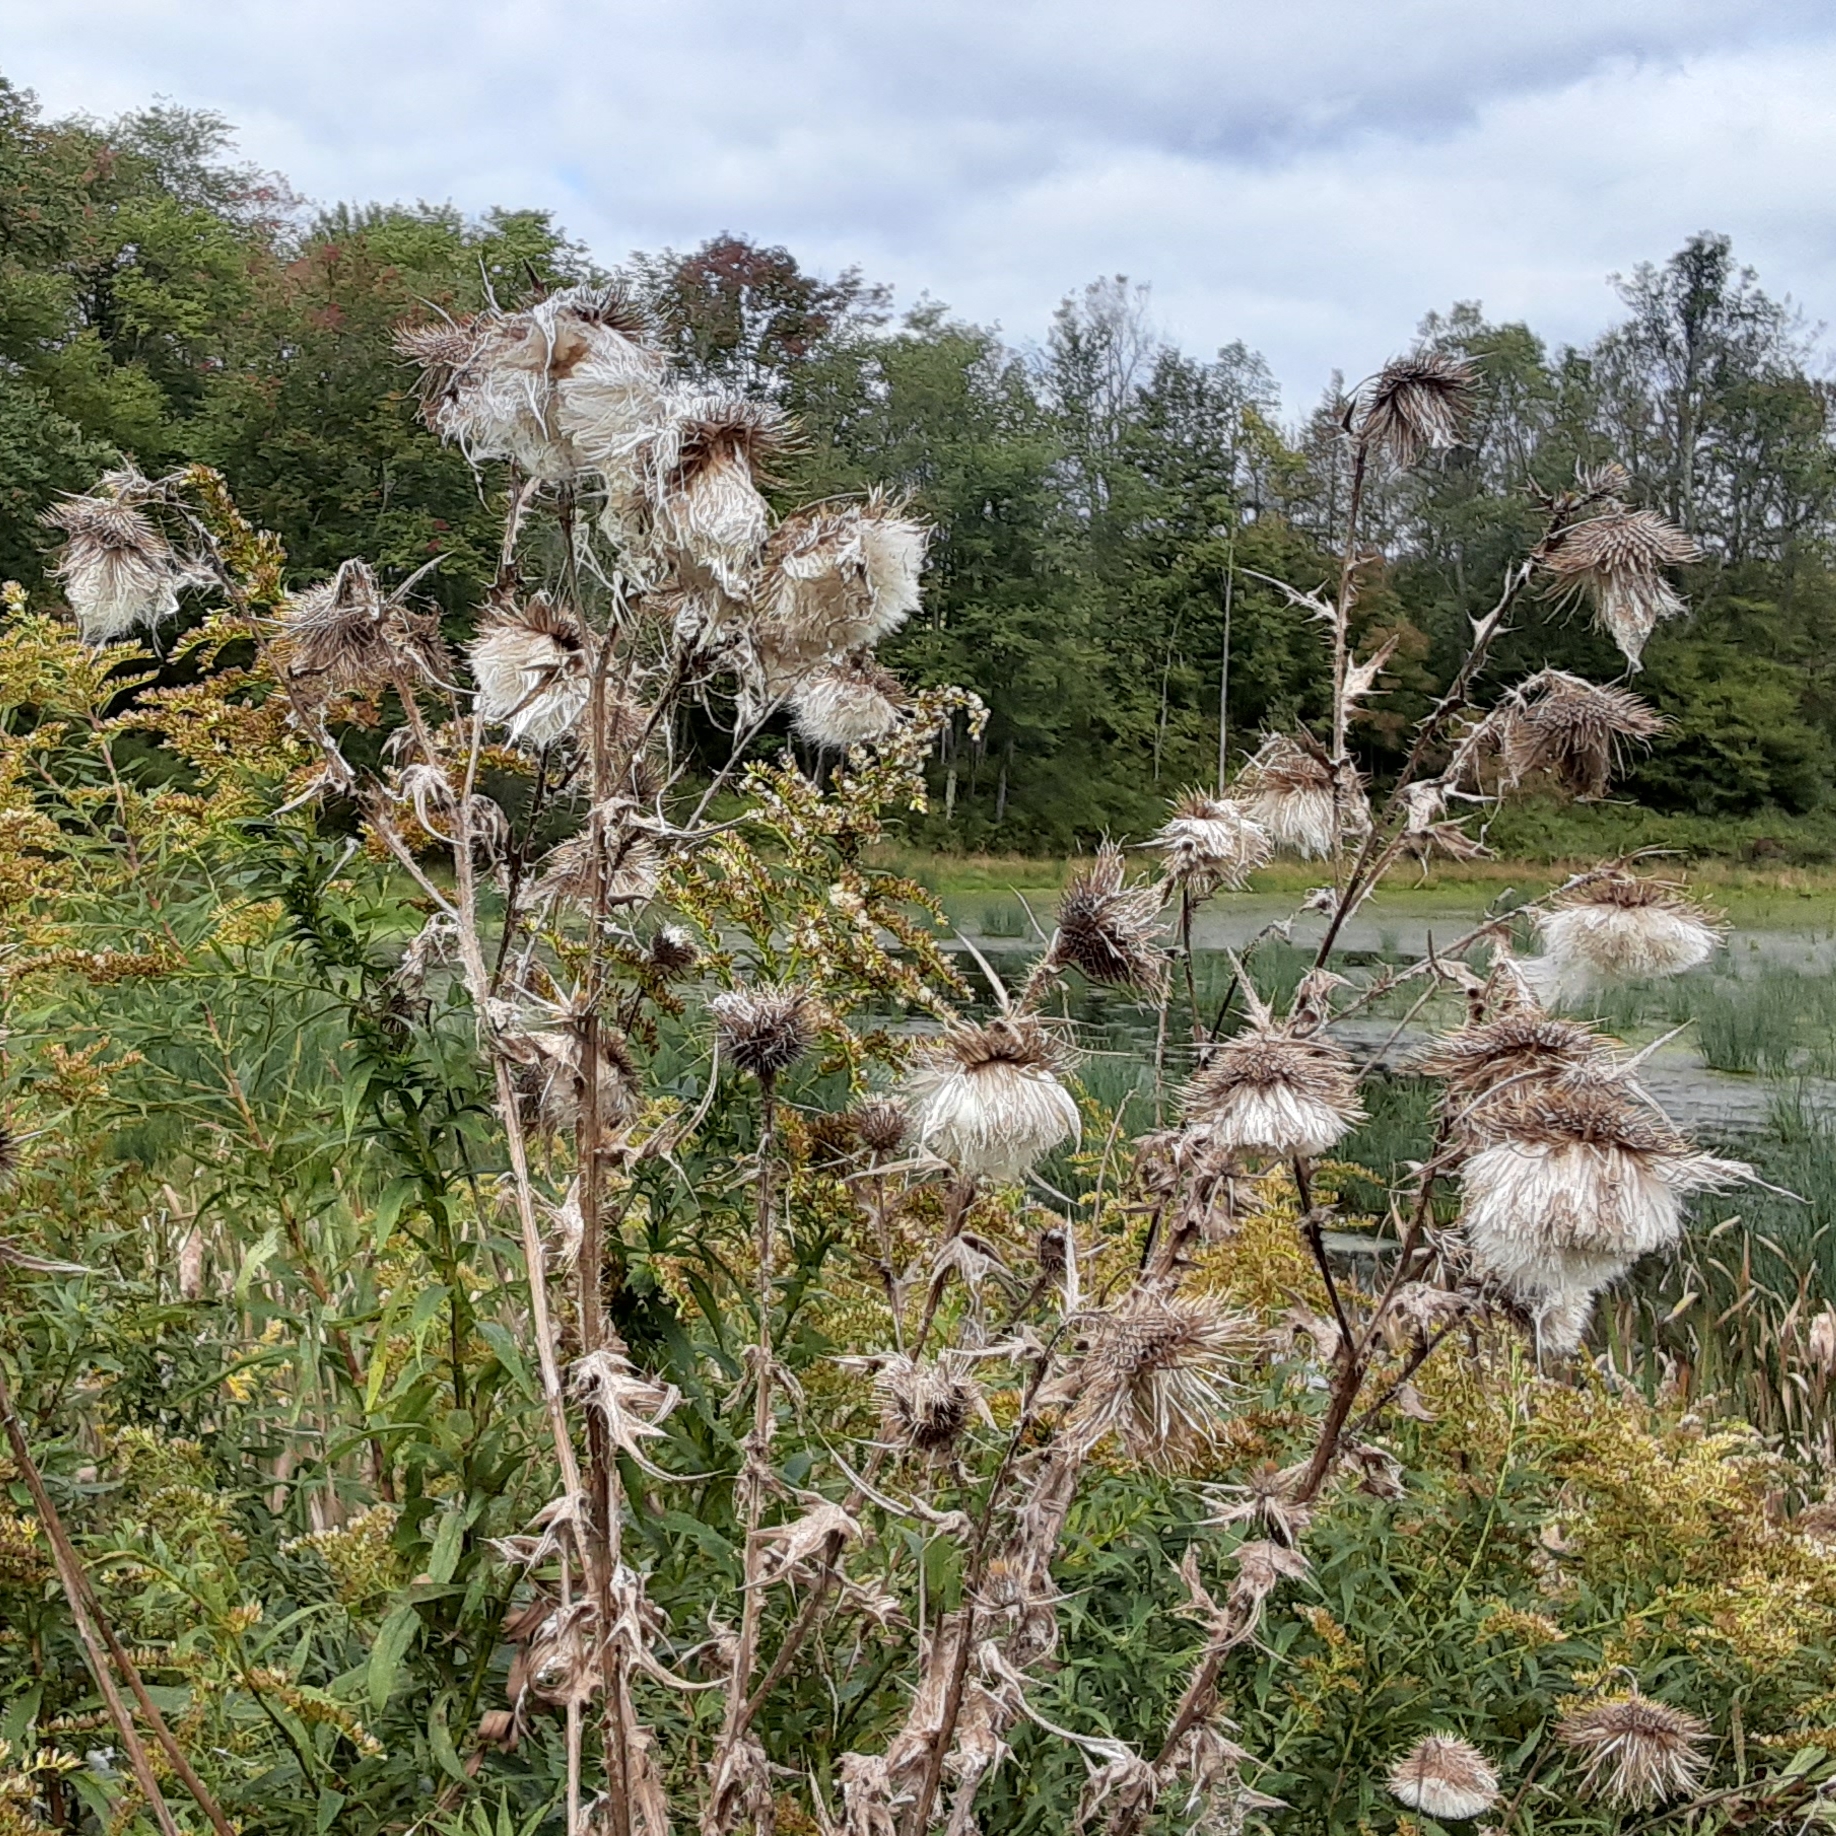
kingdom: Plantae
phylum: Tracheophyta
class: Magnoliopsida
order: Asterales
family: Asteraceae
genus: Cirsium
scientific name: Cirsium vulgare
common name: Bull thistle
